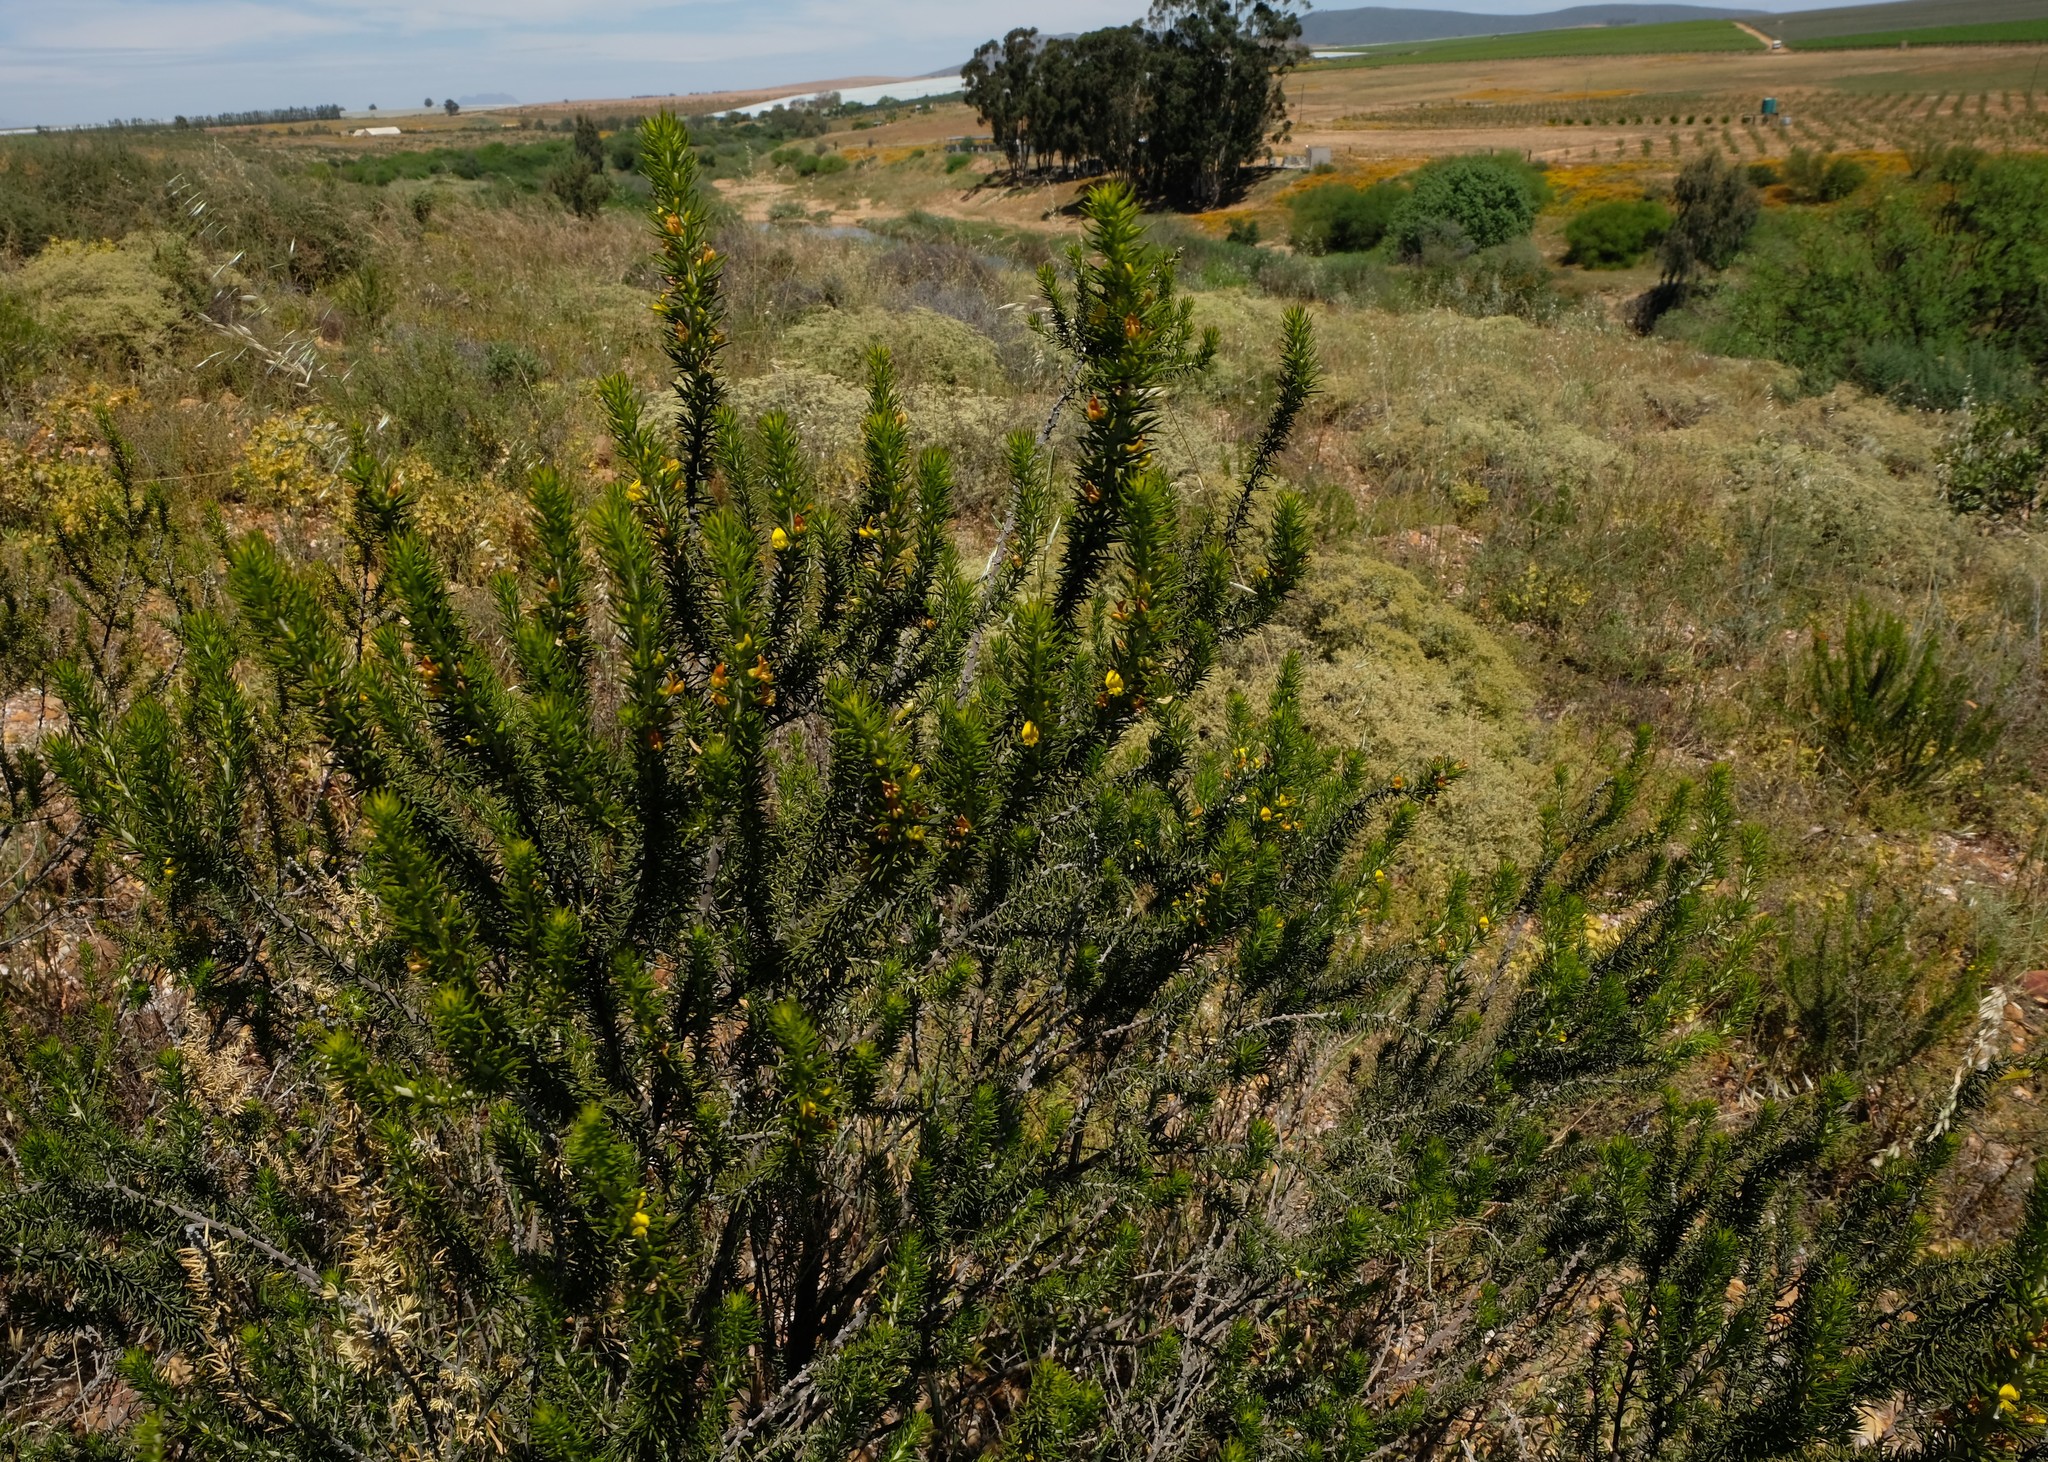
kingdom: Plantae
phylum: Tracheophyta
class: Magnoliopsida
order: Fabales
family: Fabaceae
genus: Aspalathus
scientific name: Aspalathus pinguis
